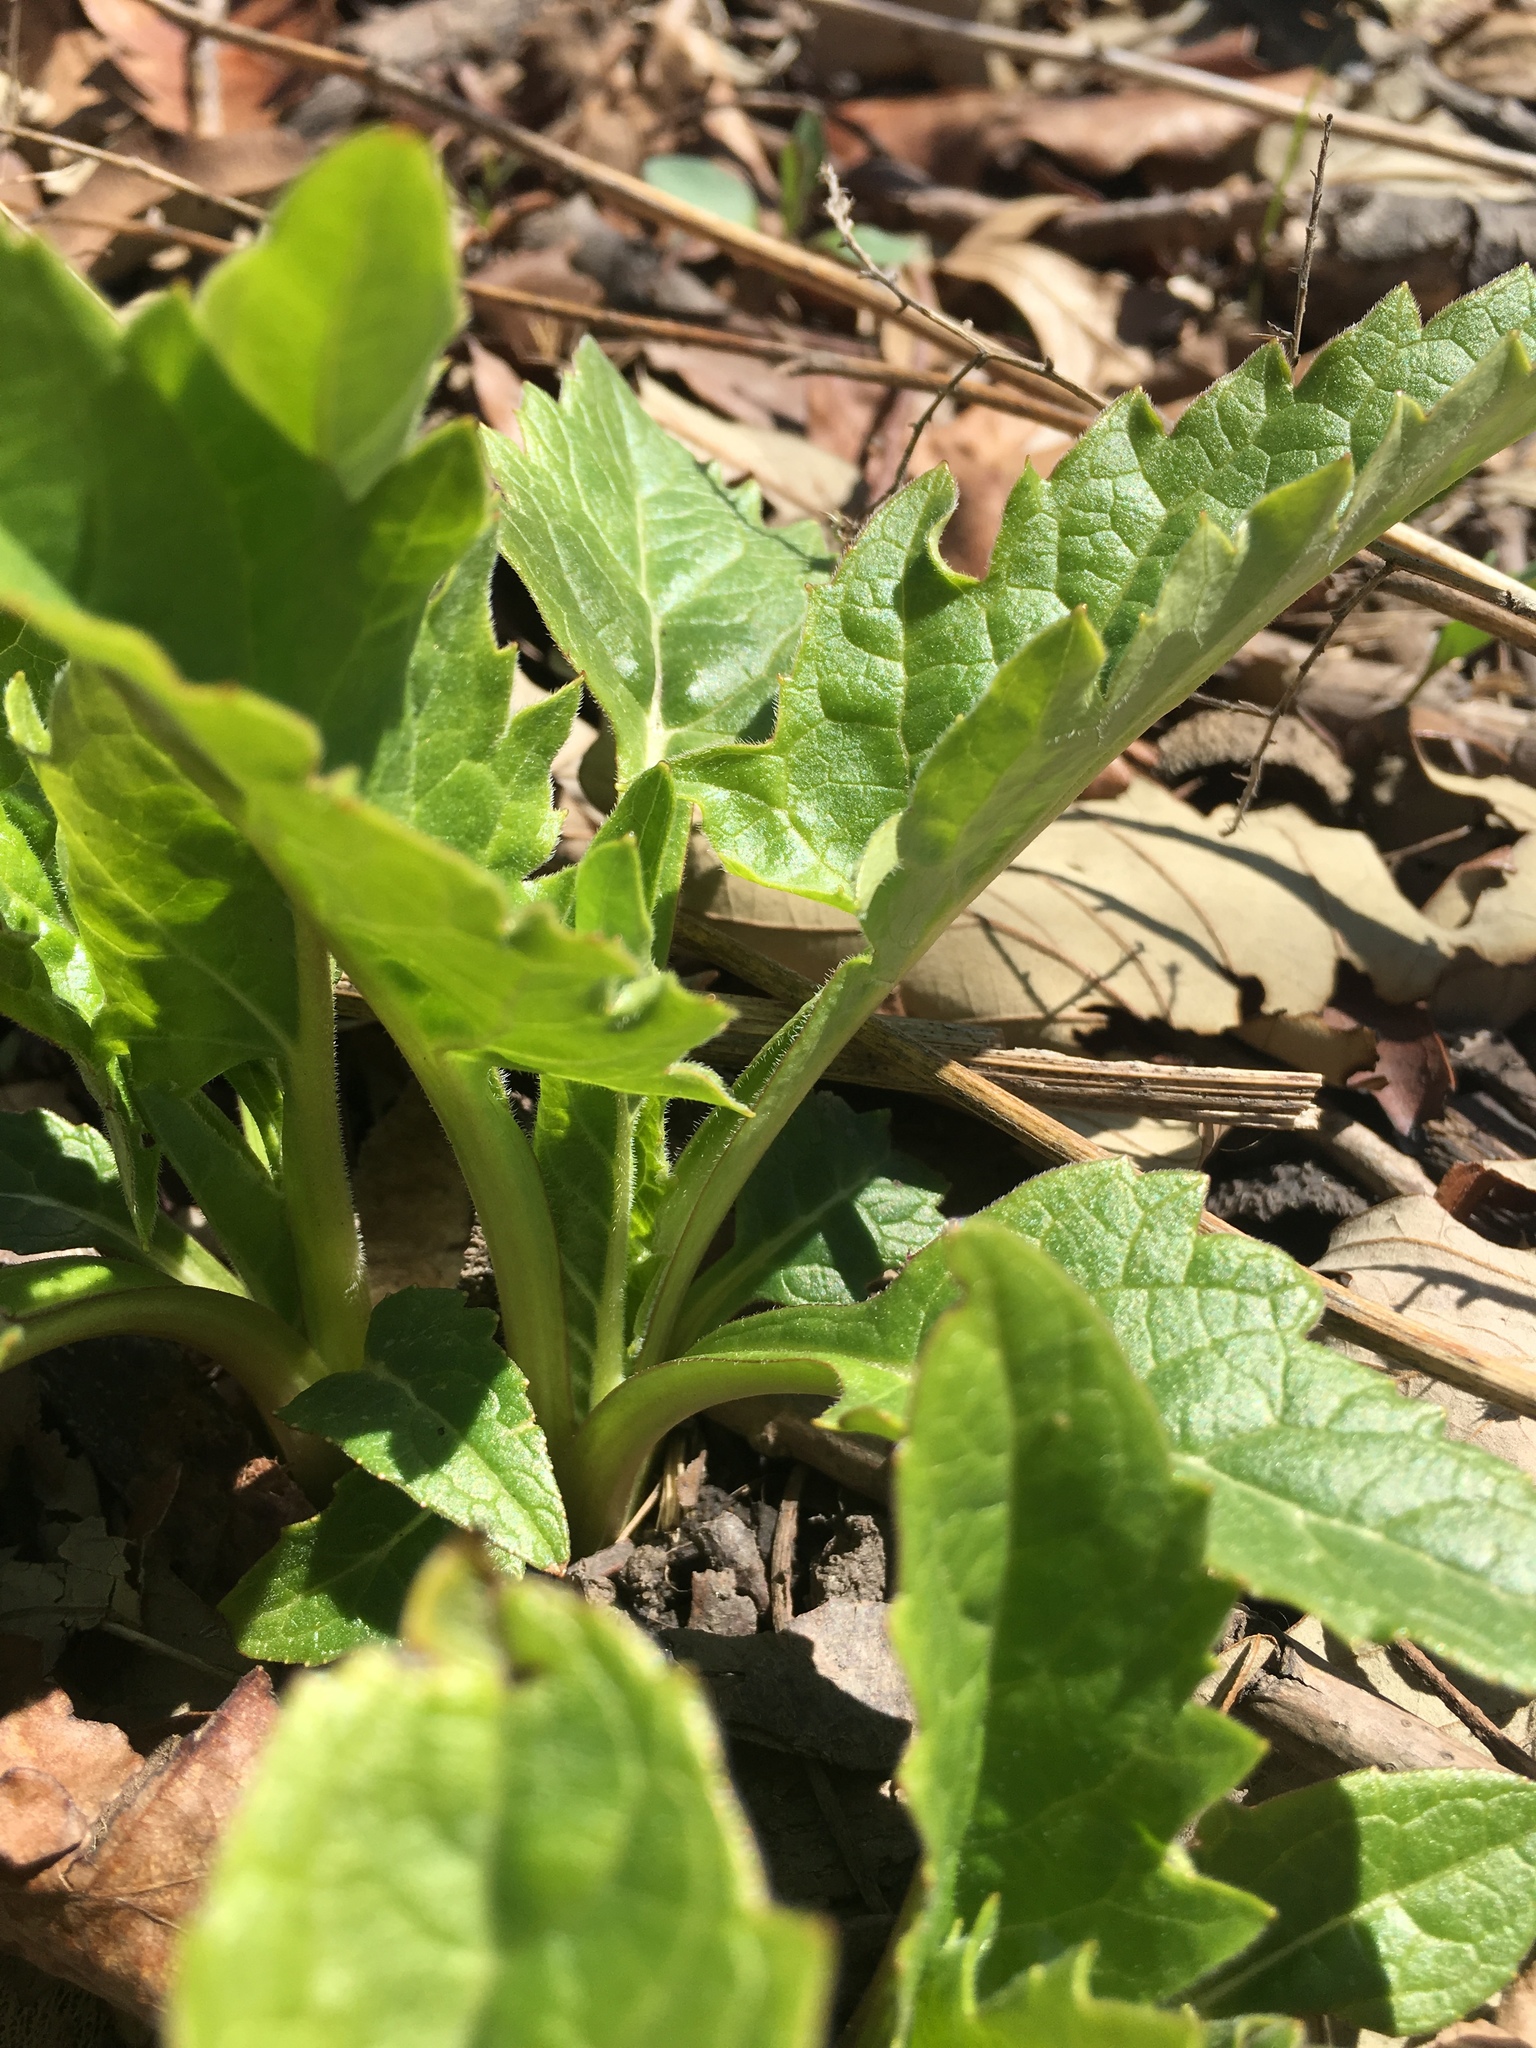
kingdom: Plantae
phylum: Tracheophyta
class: Magnoliopsida
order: Asterales
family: Asteraceae
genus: Silphium
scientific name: Silphium perfoliatum
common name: Cup-plant
